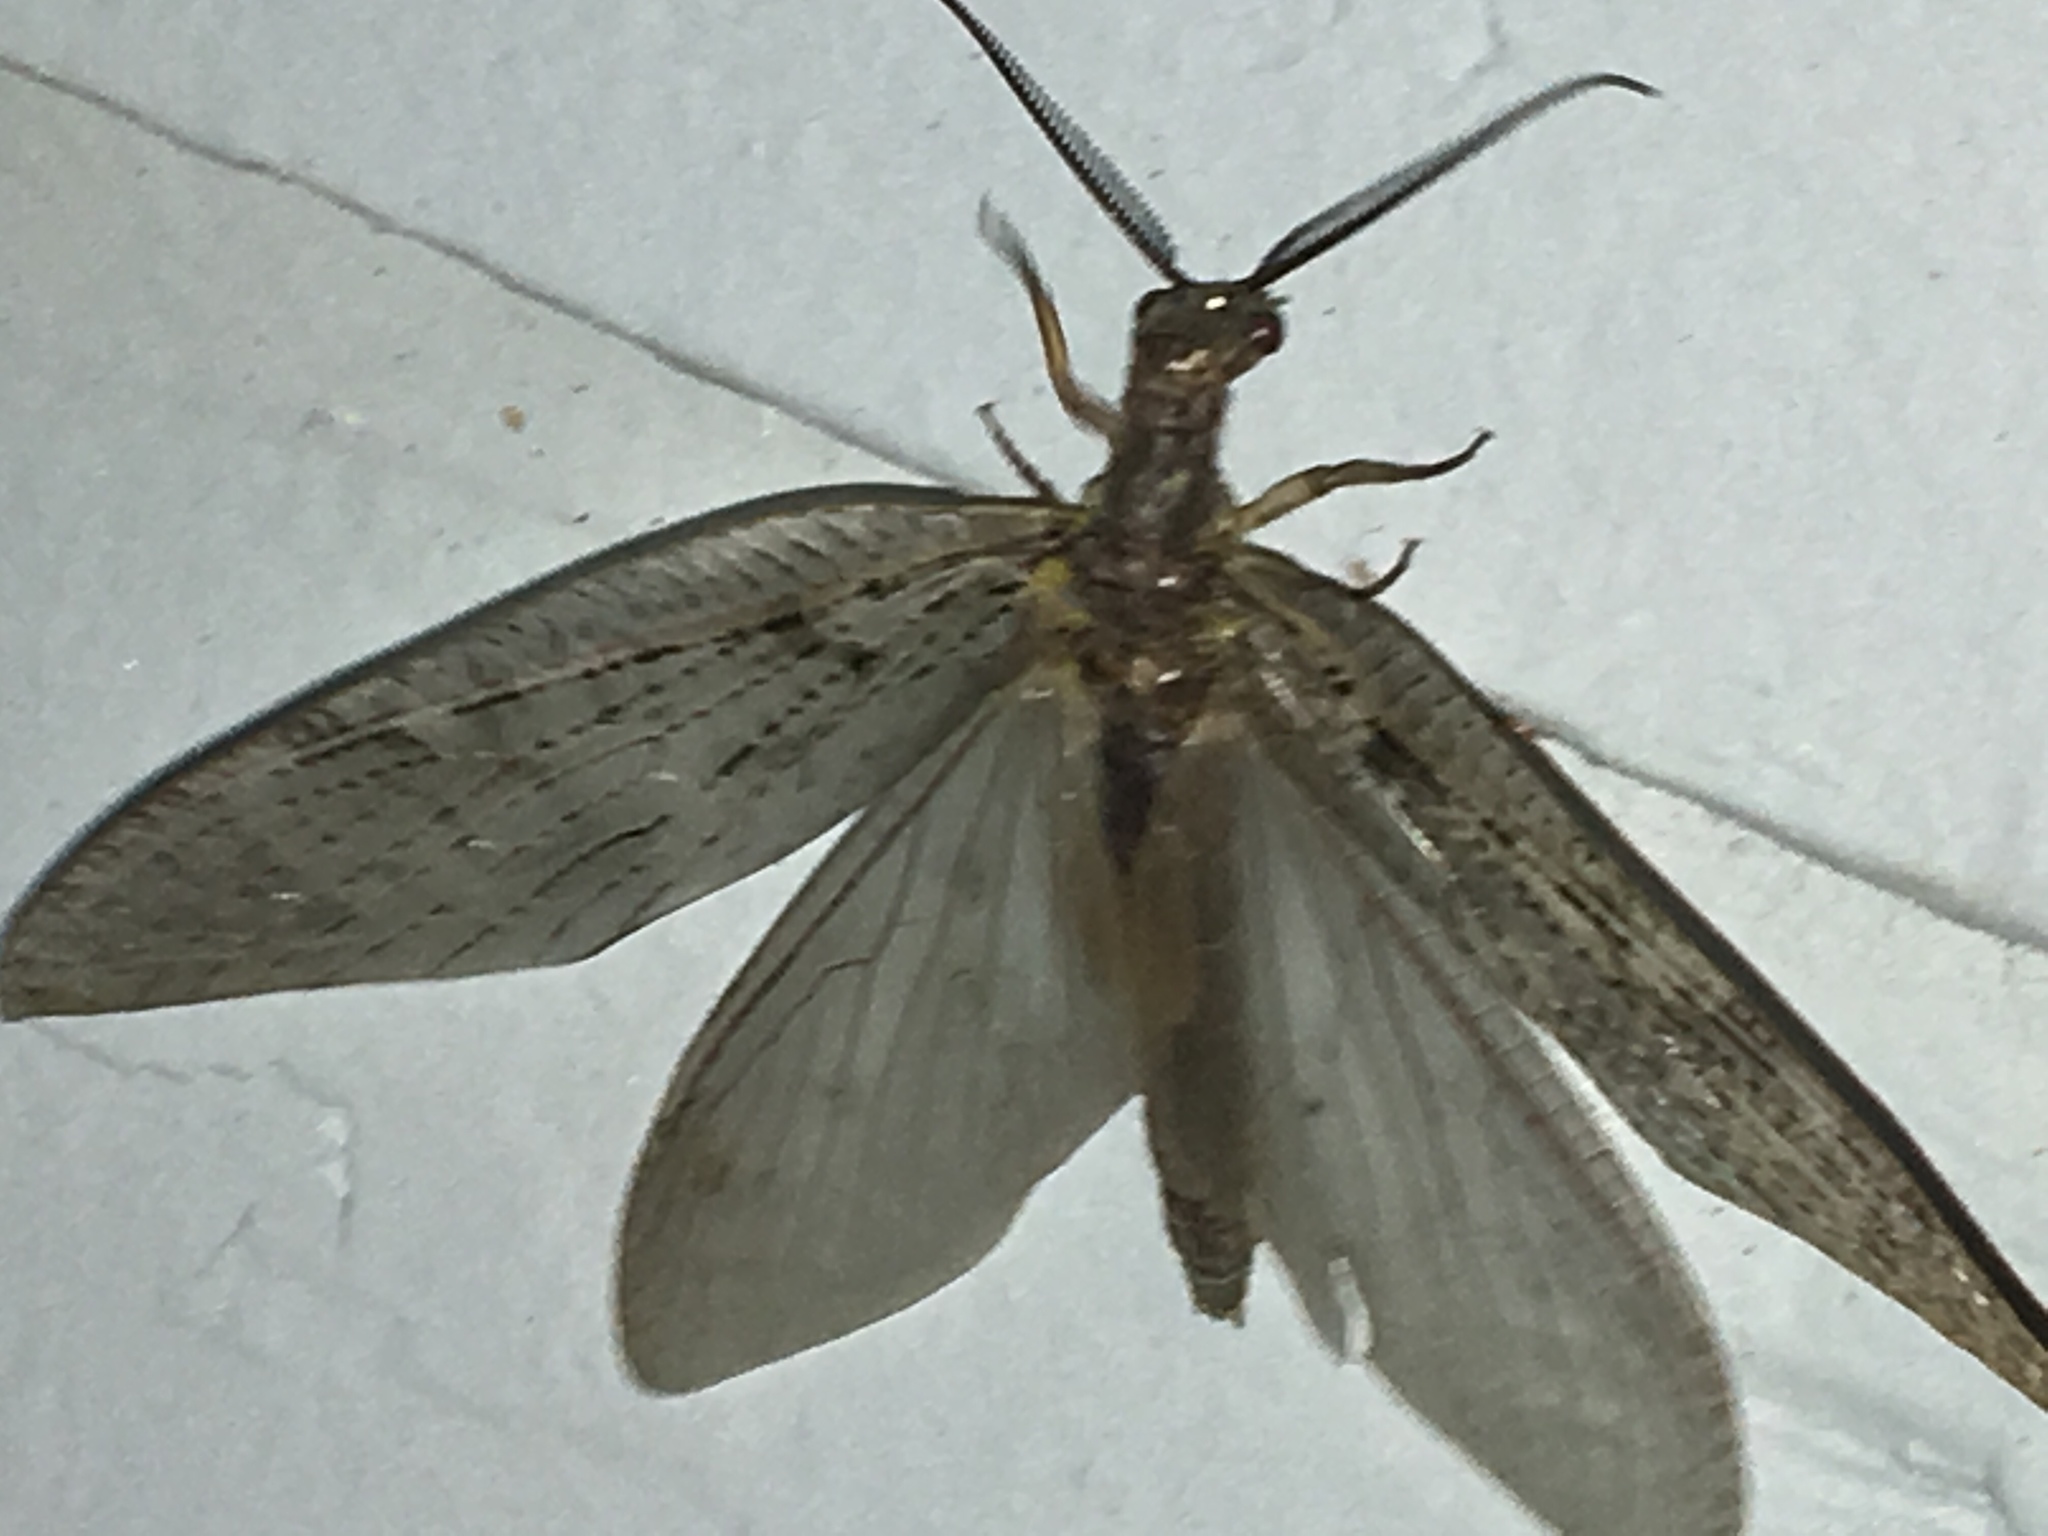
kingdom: Animalia
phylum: Arthropoda
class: Insecta
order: Megaloptera
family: Corydalidae
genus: Chauliodes
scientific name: Chauliodes pectinicornis
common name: Summer fishfly
